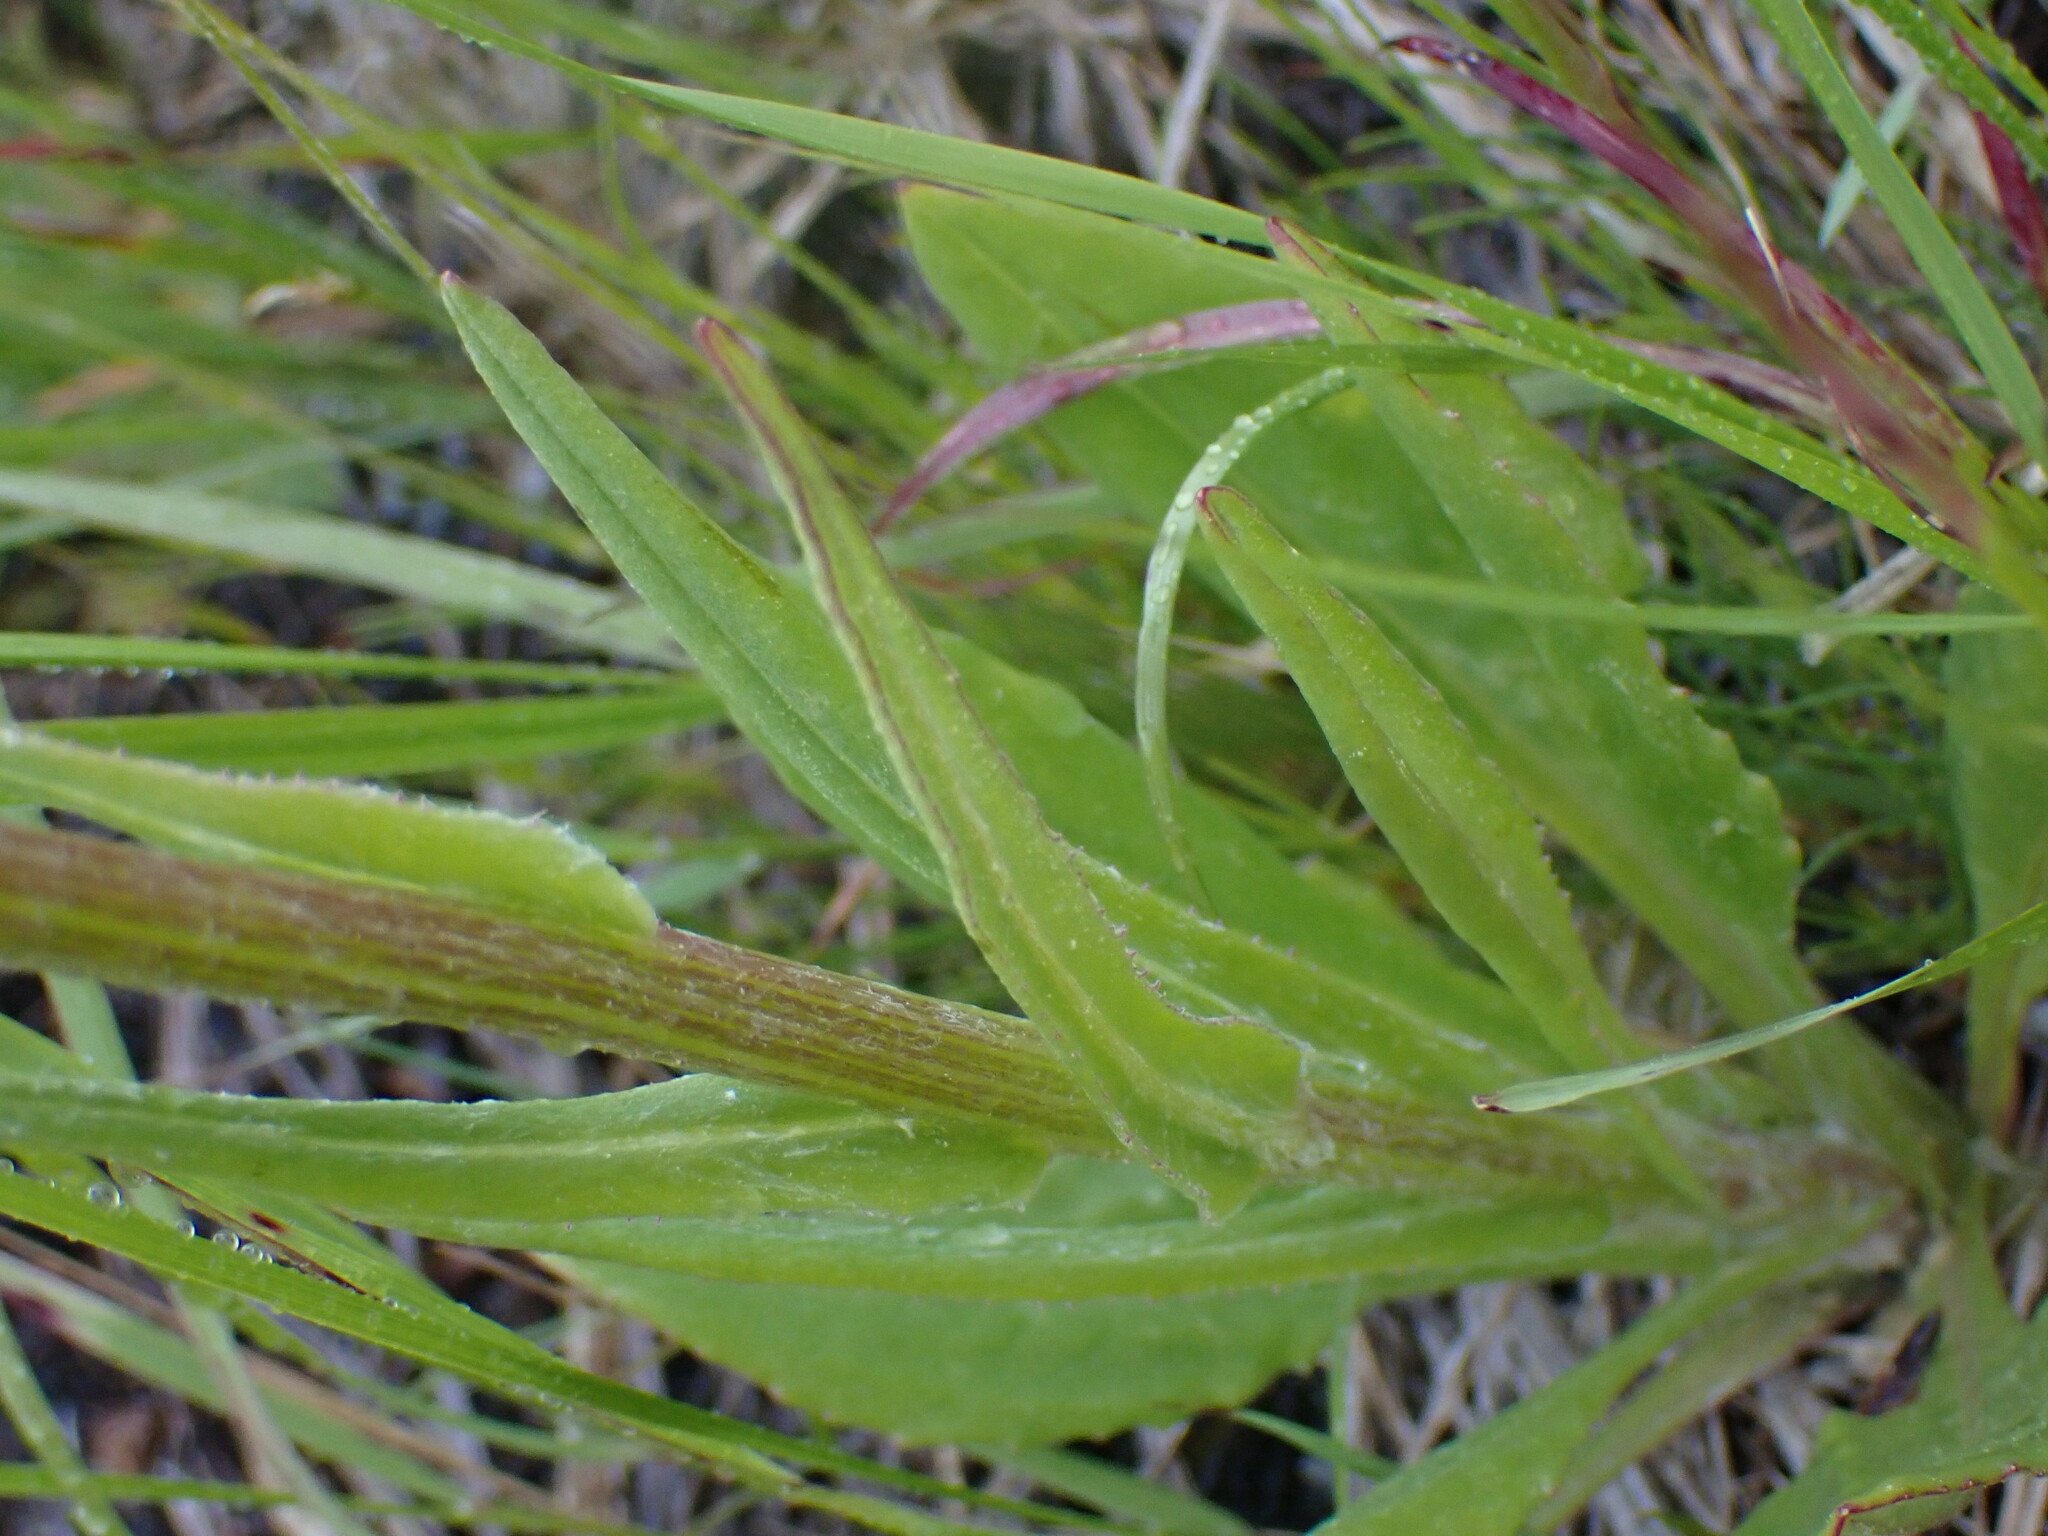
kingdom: Plantae
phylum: Tracheophyta
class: Magnoliopsida
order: Asterales
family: Asteraceae
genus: Senecio
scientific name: Senecio integerrimus
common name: Gaugeplant
